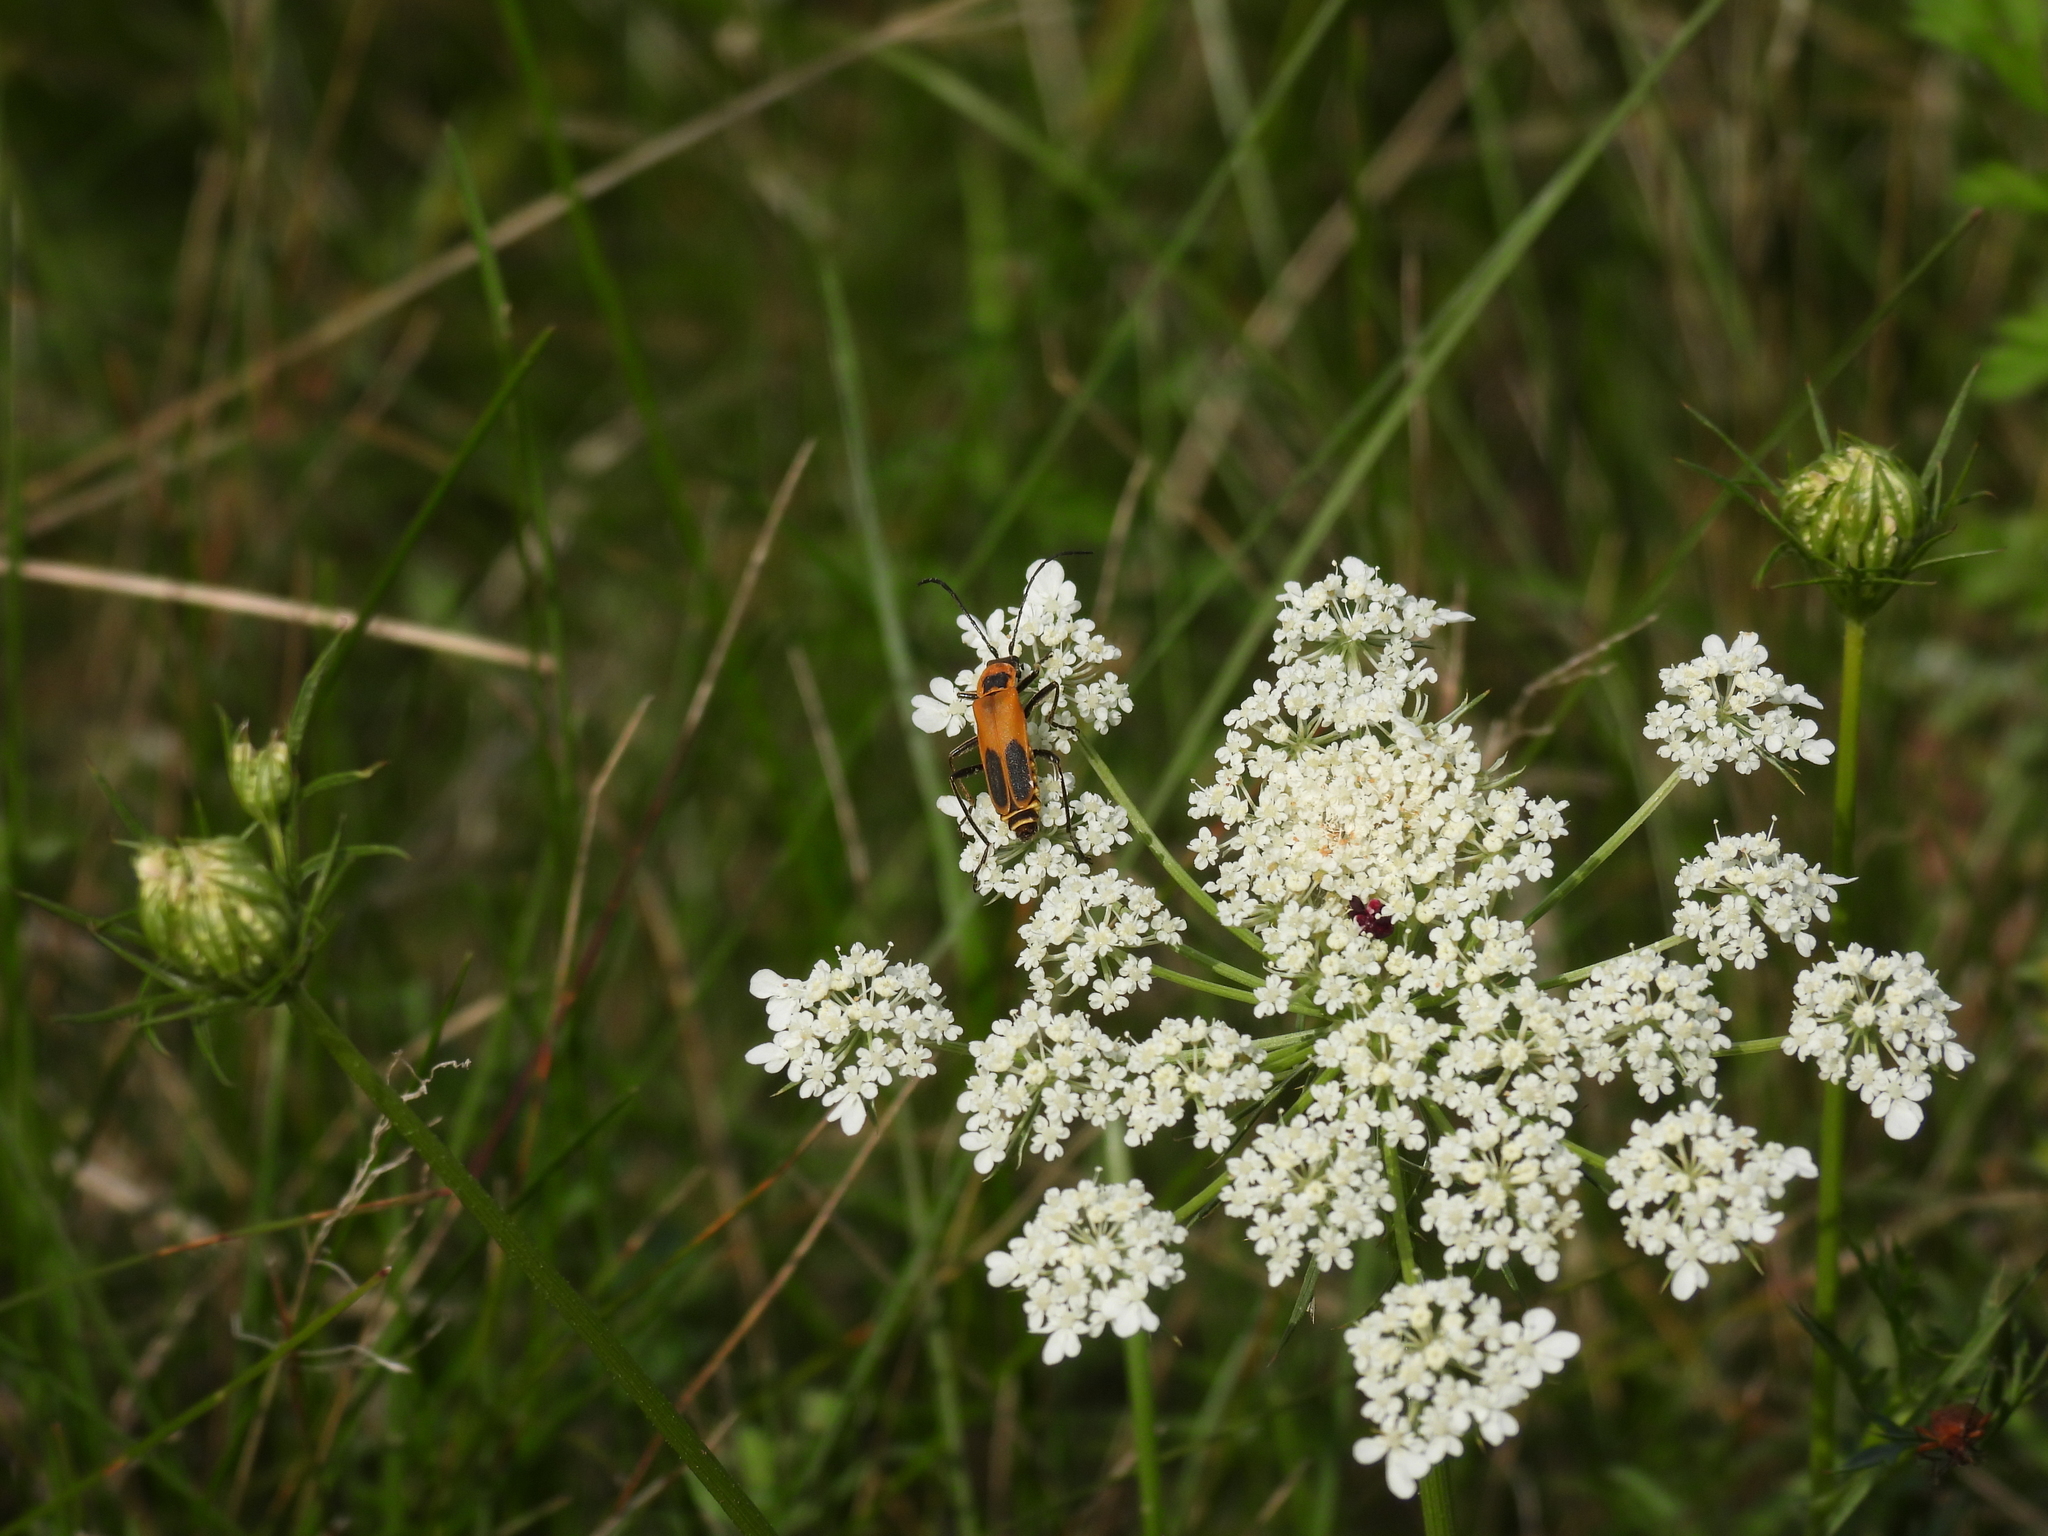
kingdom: Animalia
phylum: Arthropoda
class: Insecta
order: Coleoptera
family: Cantharidae
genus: Chauliognathus
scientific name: Chauliognathus pensylvanicus
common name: Goldenrod soldier beetle
